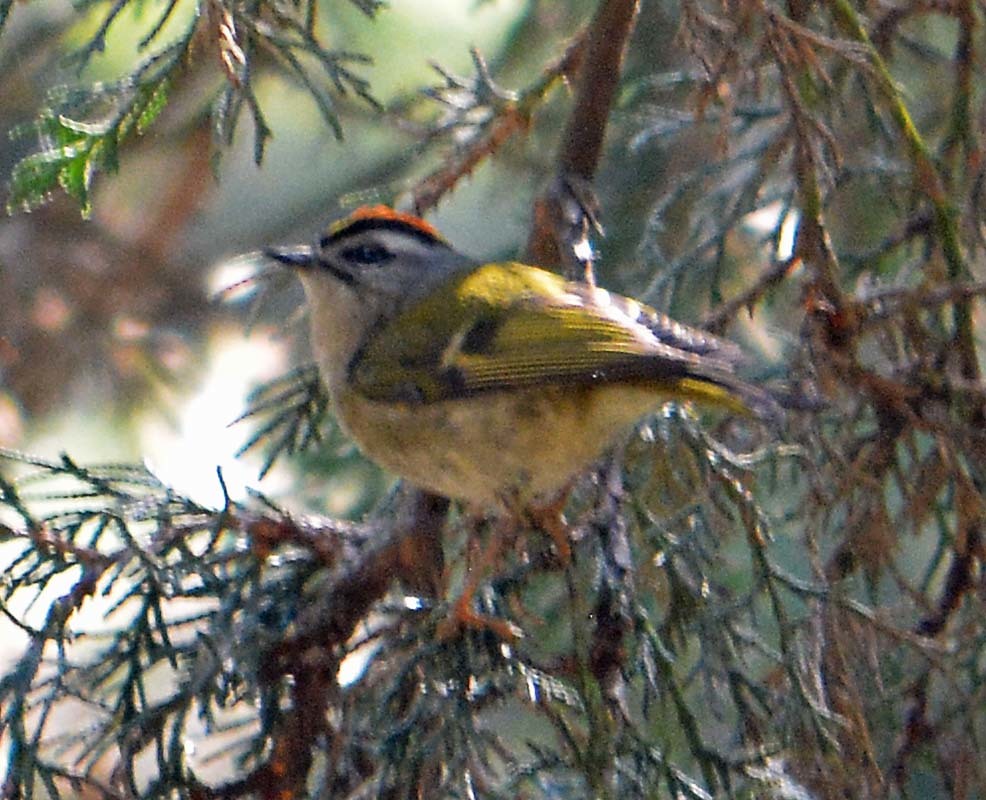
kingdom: Animalia
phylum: Chordata
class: Aves
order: Passeriformes
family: Regulidae
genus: Regulus
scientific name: Regulus satrapa
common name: Golden-crowned kinglet
